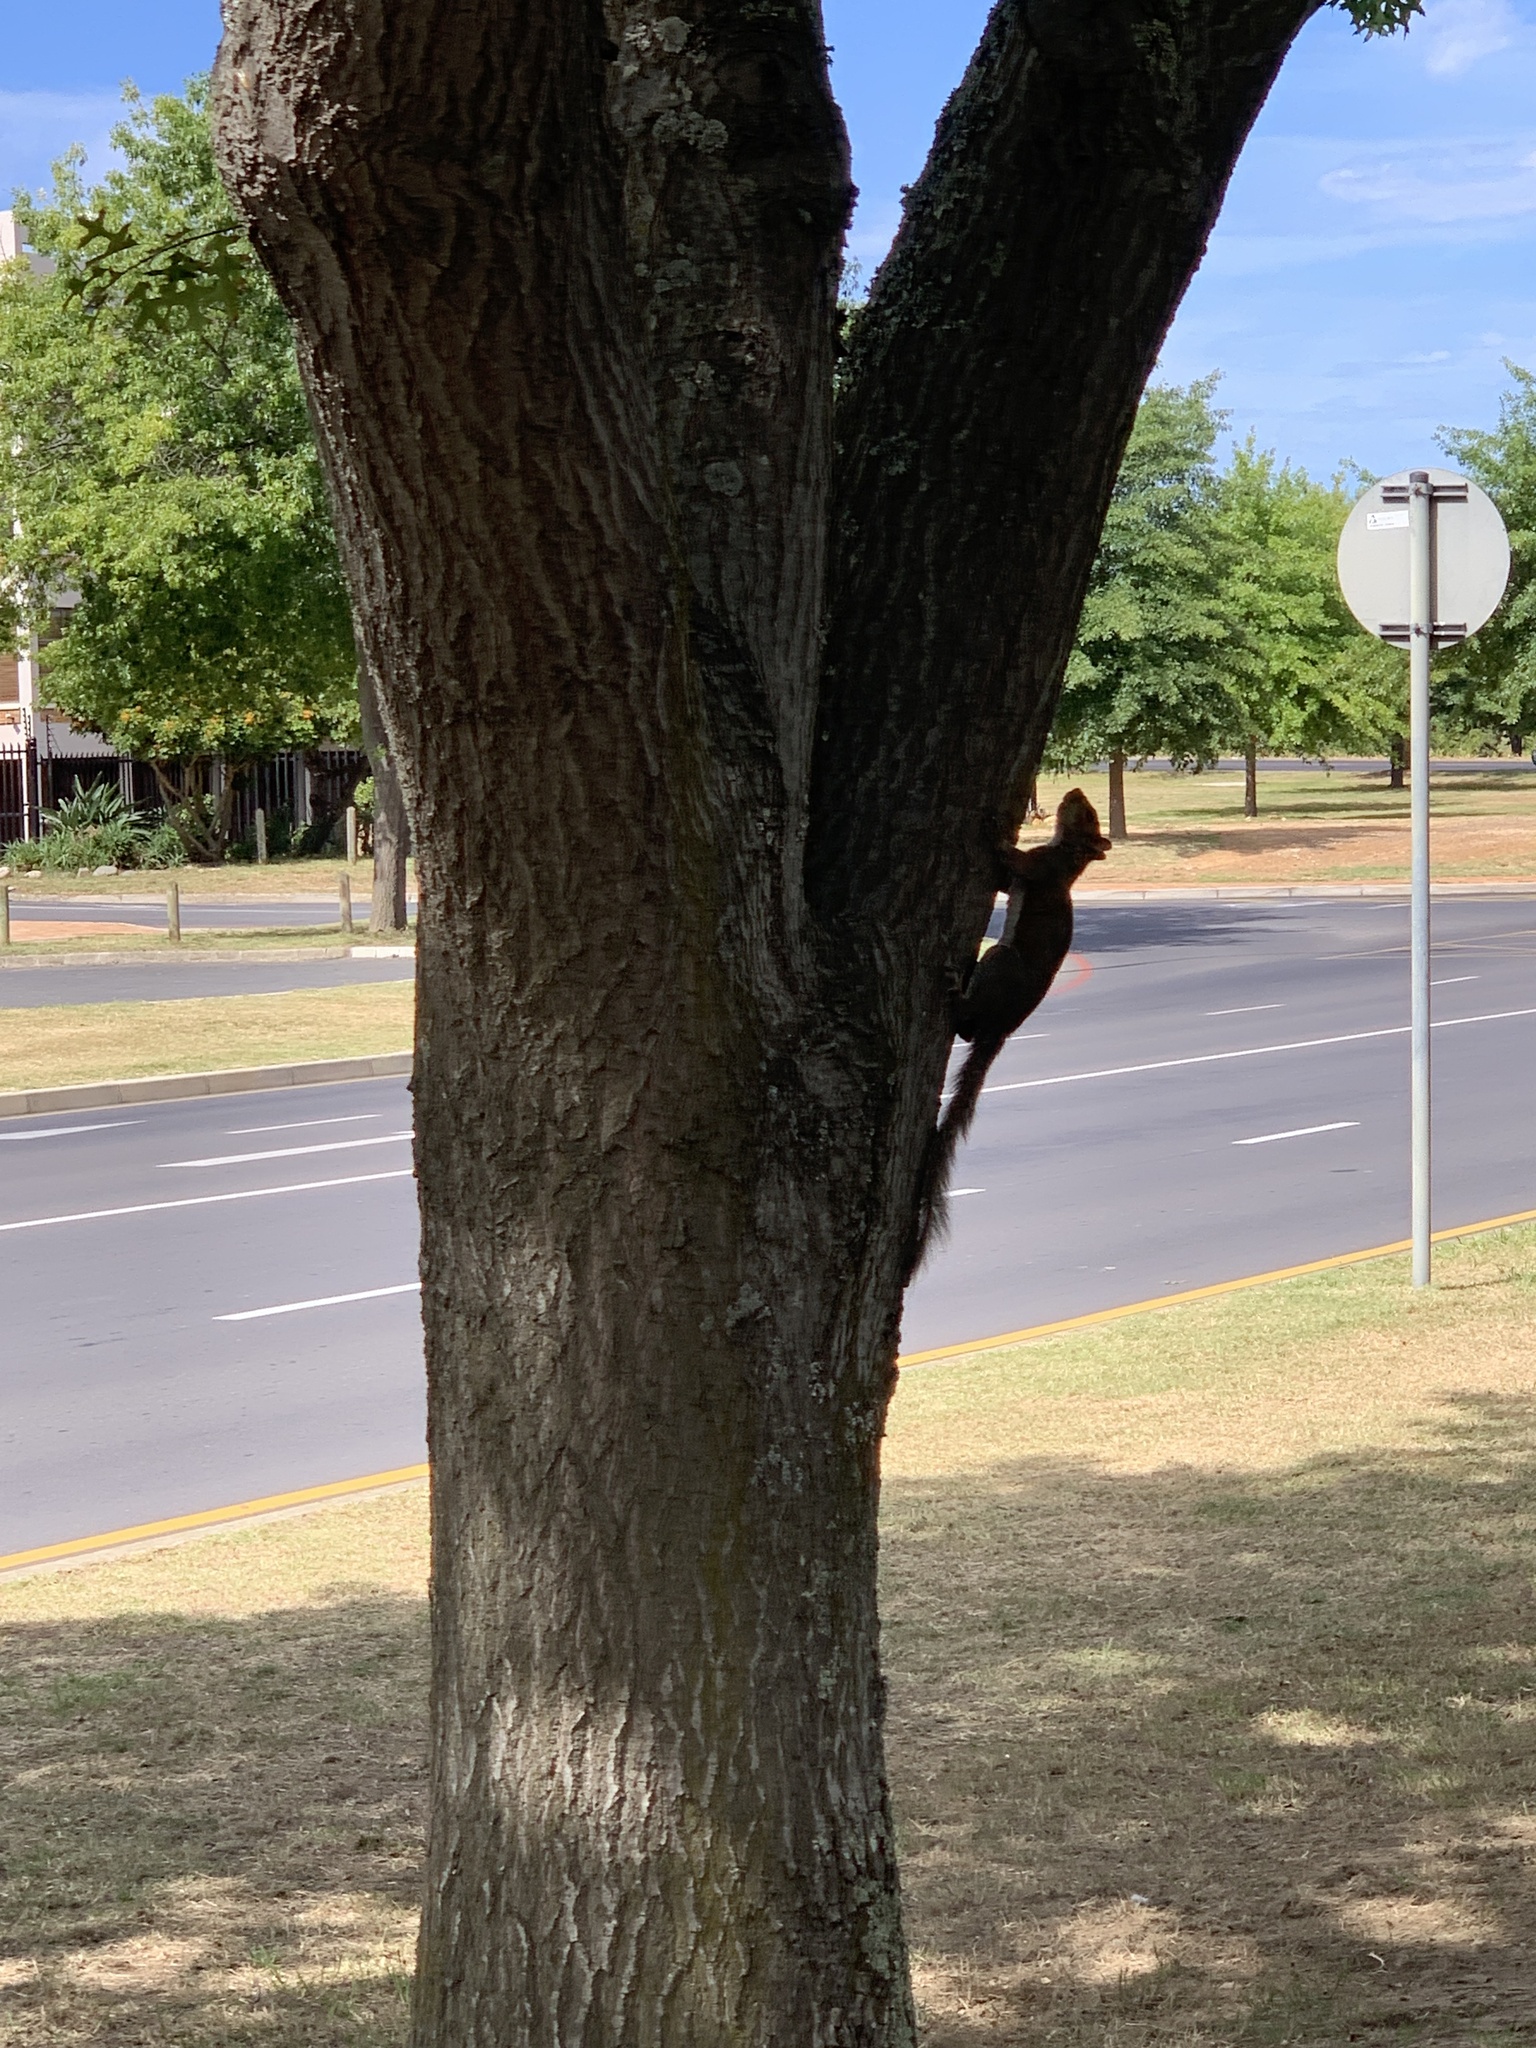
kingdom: Animalia
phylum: Chordata
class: Mammalia
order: Rodentia
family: Sciuridae
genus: Sciurus
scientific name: Sciurus carolinensis
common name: Eastern gray squirrel
